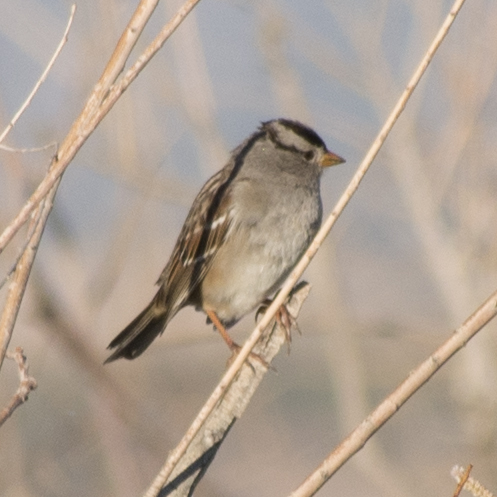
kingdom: Animalia
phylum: Chordata
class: Aves
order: Passeriformes
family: Passerellidae
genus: Zonotrichia
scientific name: Zonotrichia leucophrys
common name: White-crowned sparrow
